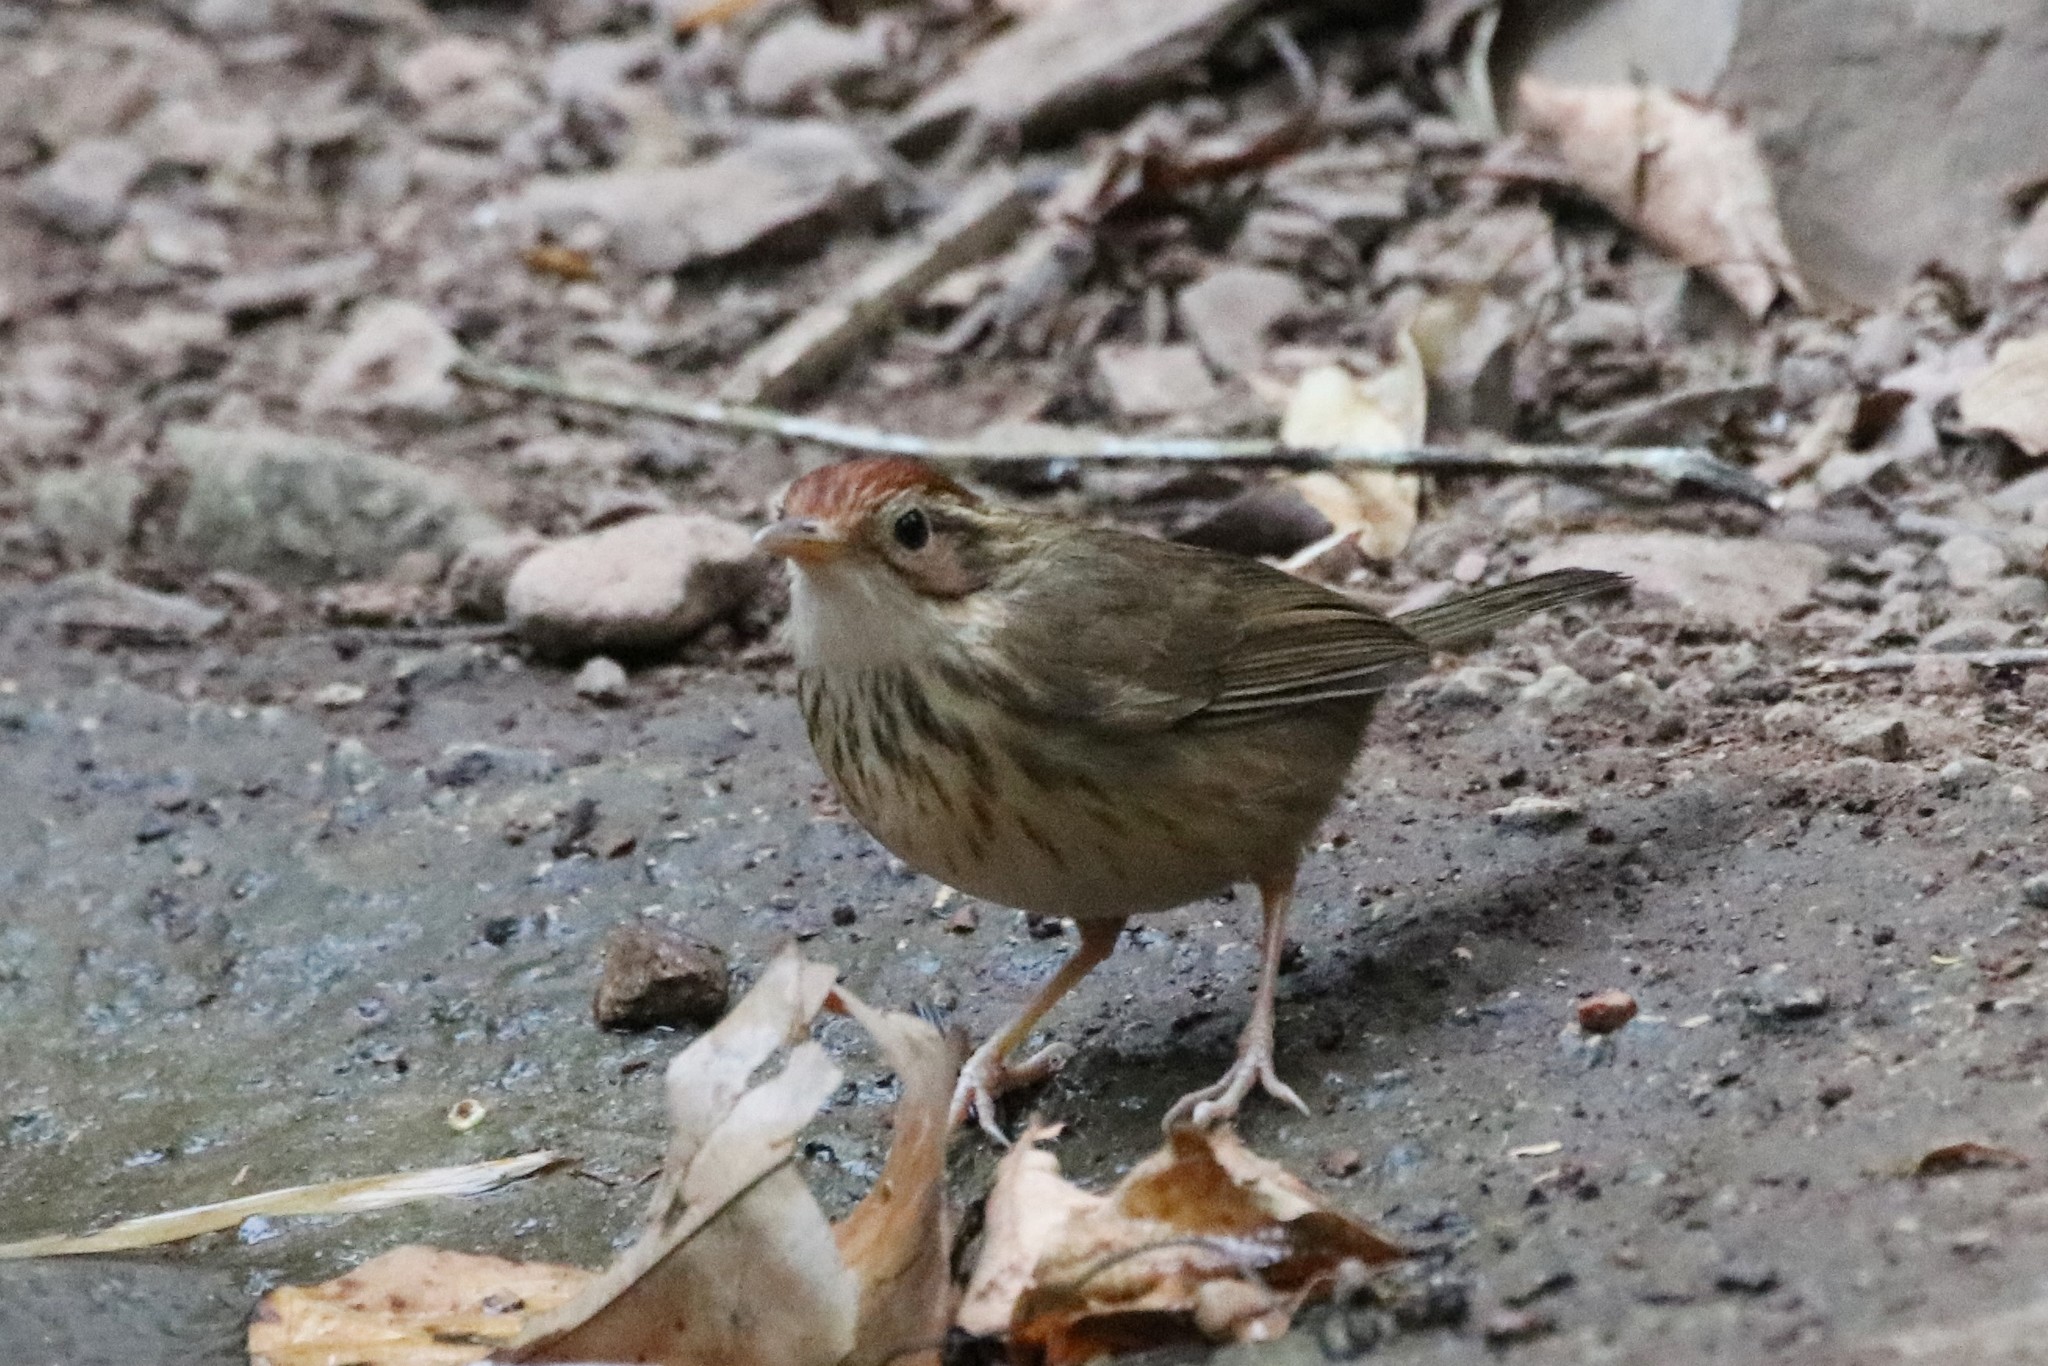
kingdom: Animalia
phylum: Chordata
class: Aves
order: Passeriformes
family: Pellorneidae
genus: Pellorneum
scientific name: Pellorneum ruficeps
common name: Puff-throated babbler
